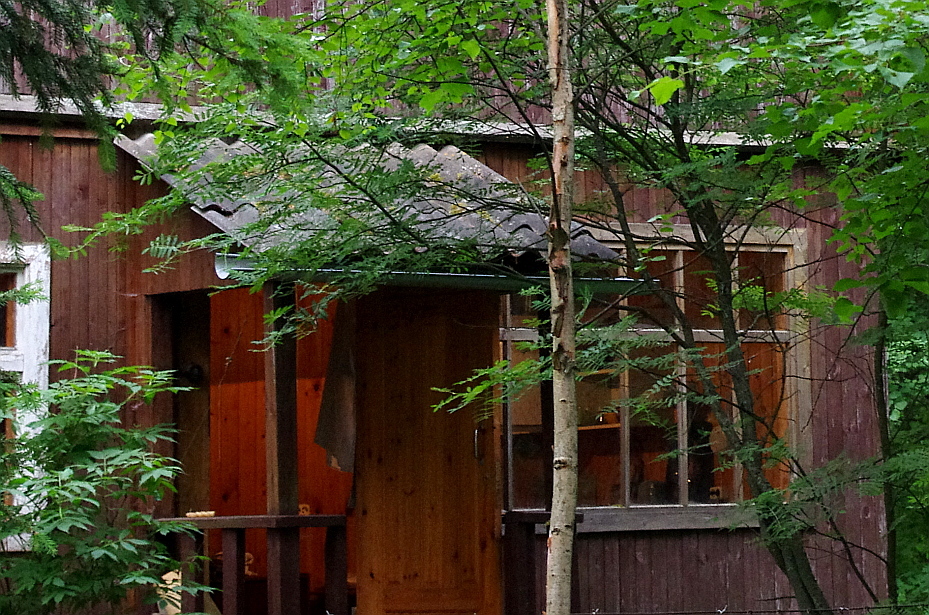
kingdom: Plantae
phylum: Tracheophyta
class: Magnoliopsida
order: Rosales
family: Rosaceae
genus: Sorbus
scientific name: Sorbus aucuparia
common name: Rowan
